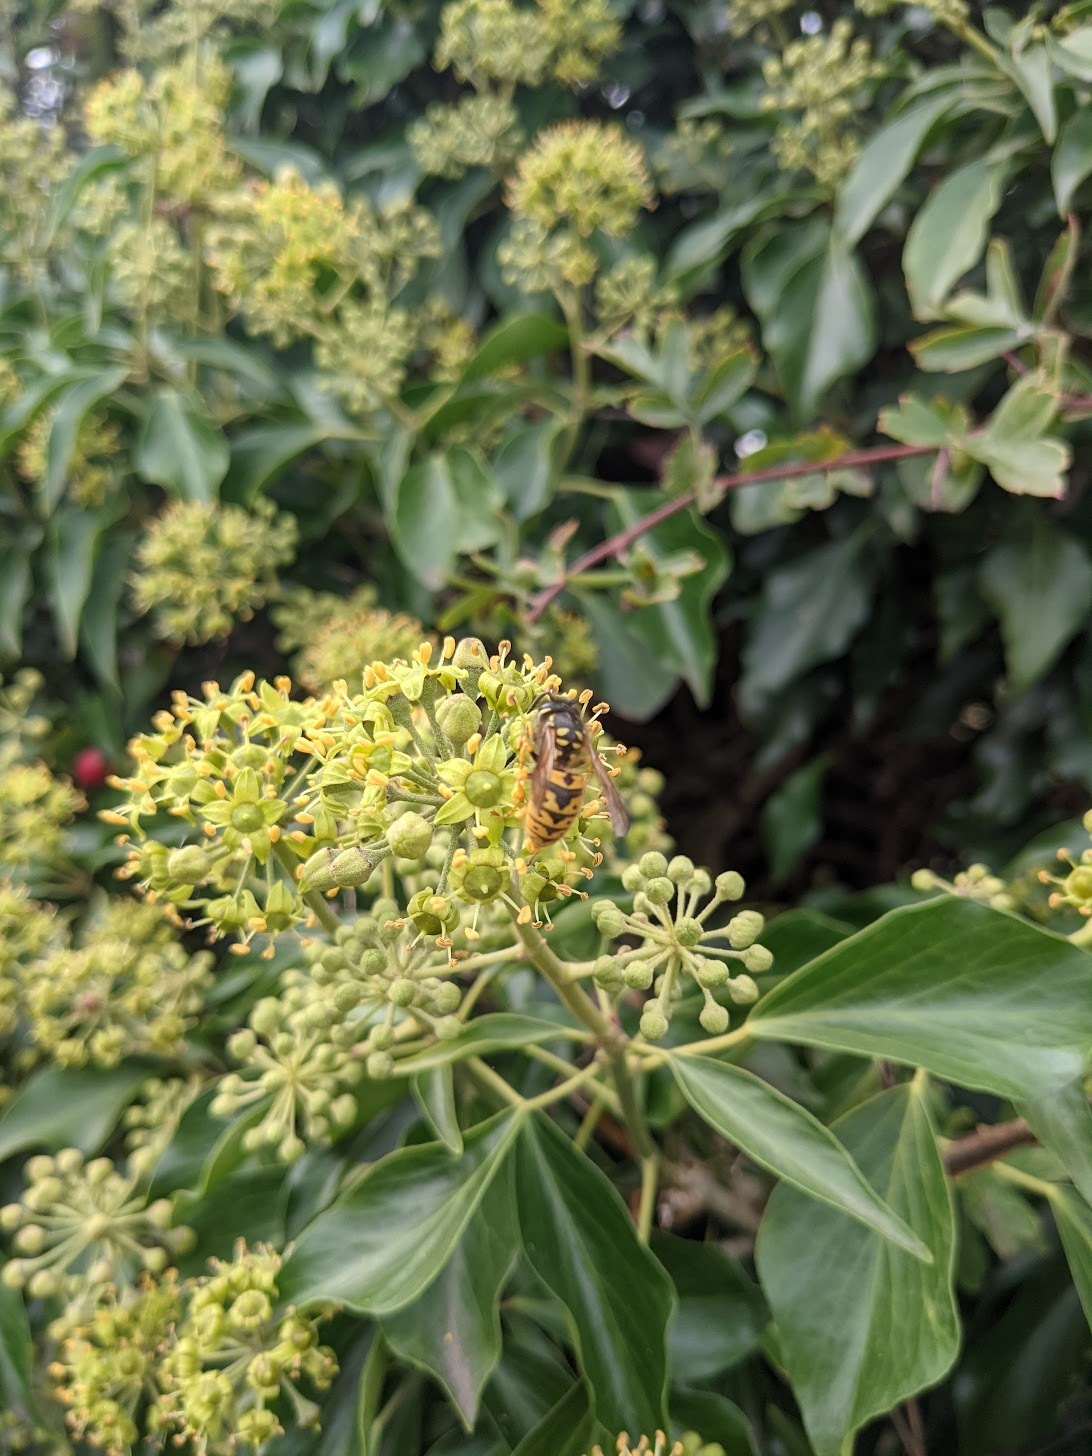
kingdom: Animalia
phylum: Arthropoda
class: Insecta
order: Hymenoptera
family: Vespidae
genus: Vespula
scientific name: Vespula germanica
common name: German wasp
